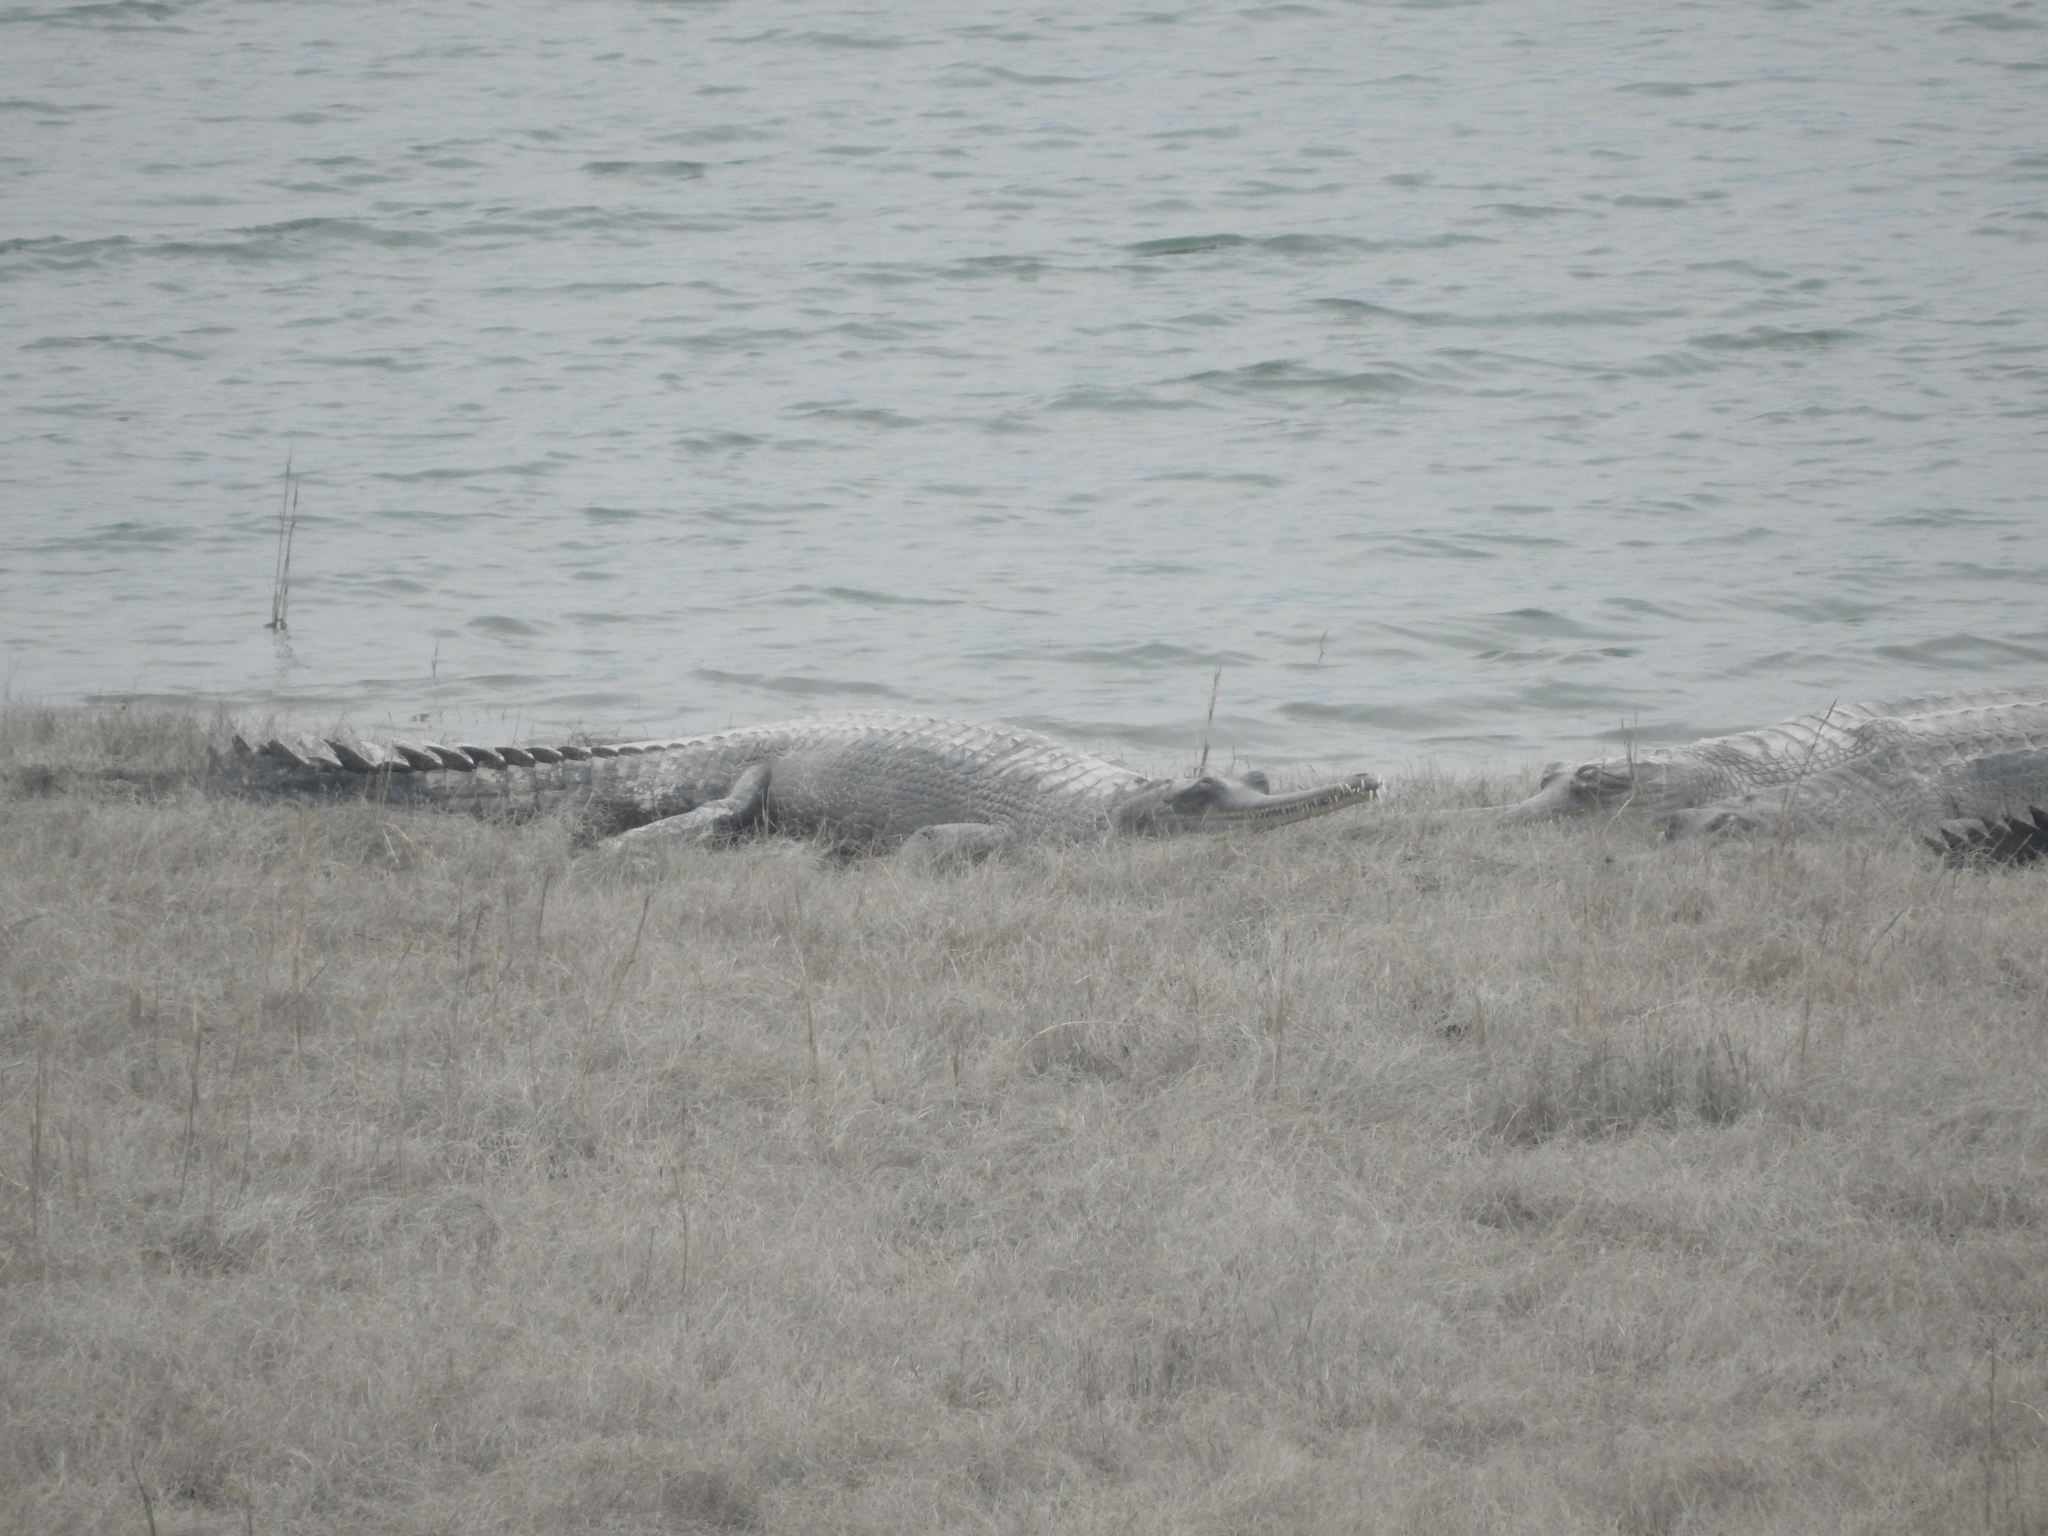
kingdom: Animalia
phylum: Chordata
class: Crocodylia
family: Gavialidae
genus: Gavialis
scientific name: Gavialis gangeticus
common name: Gharial
